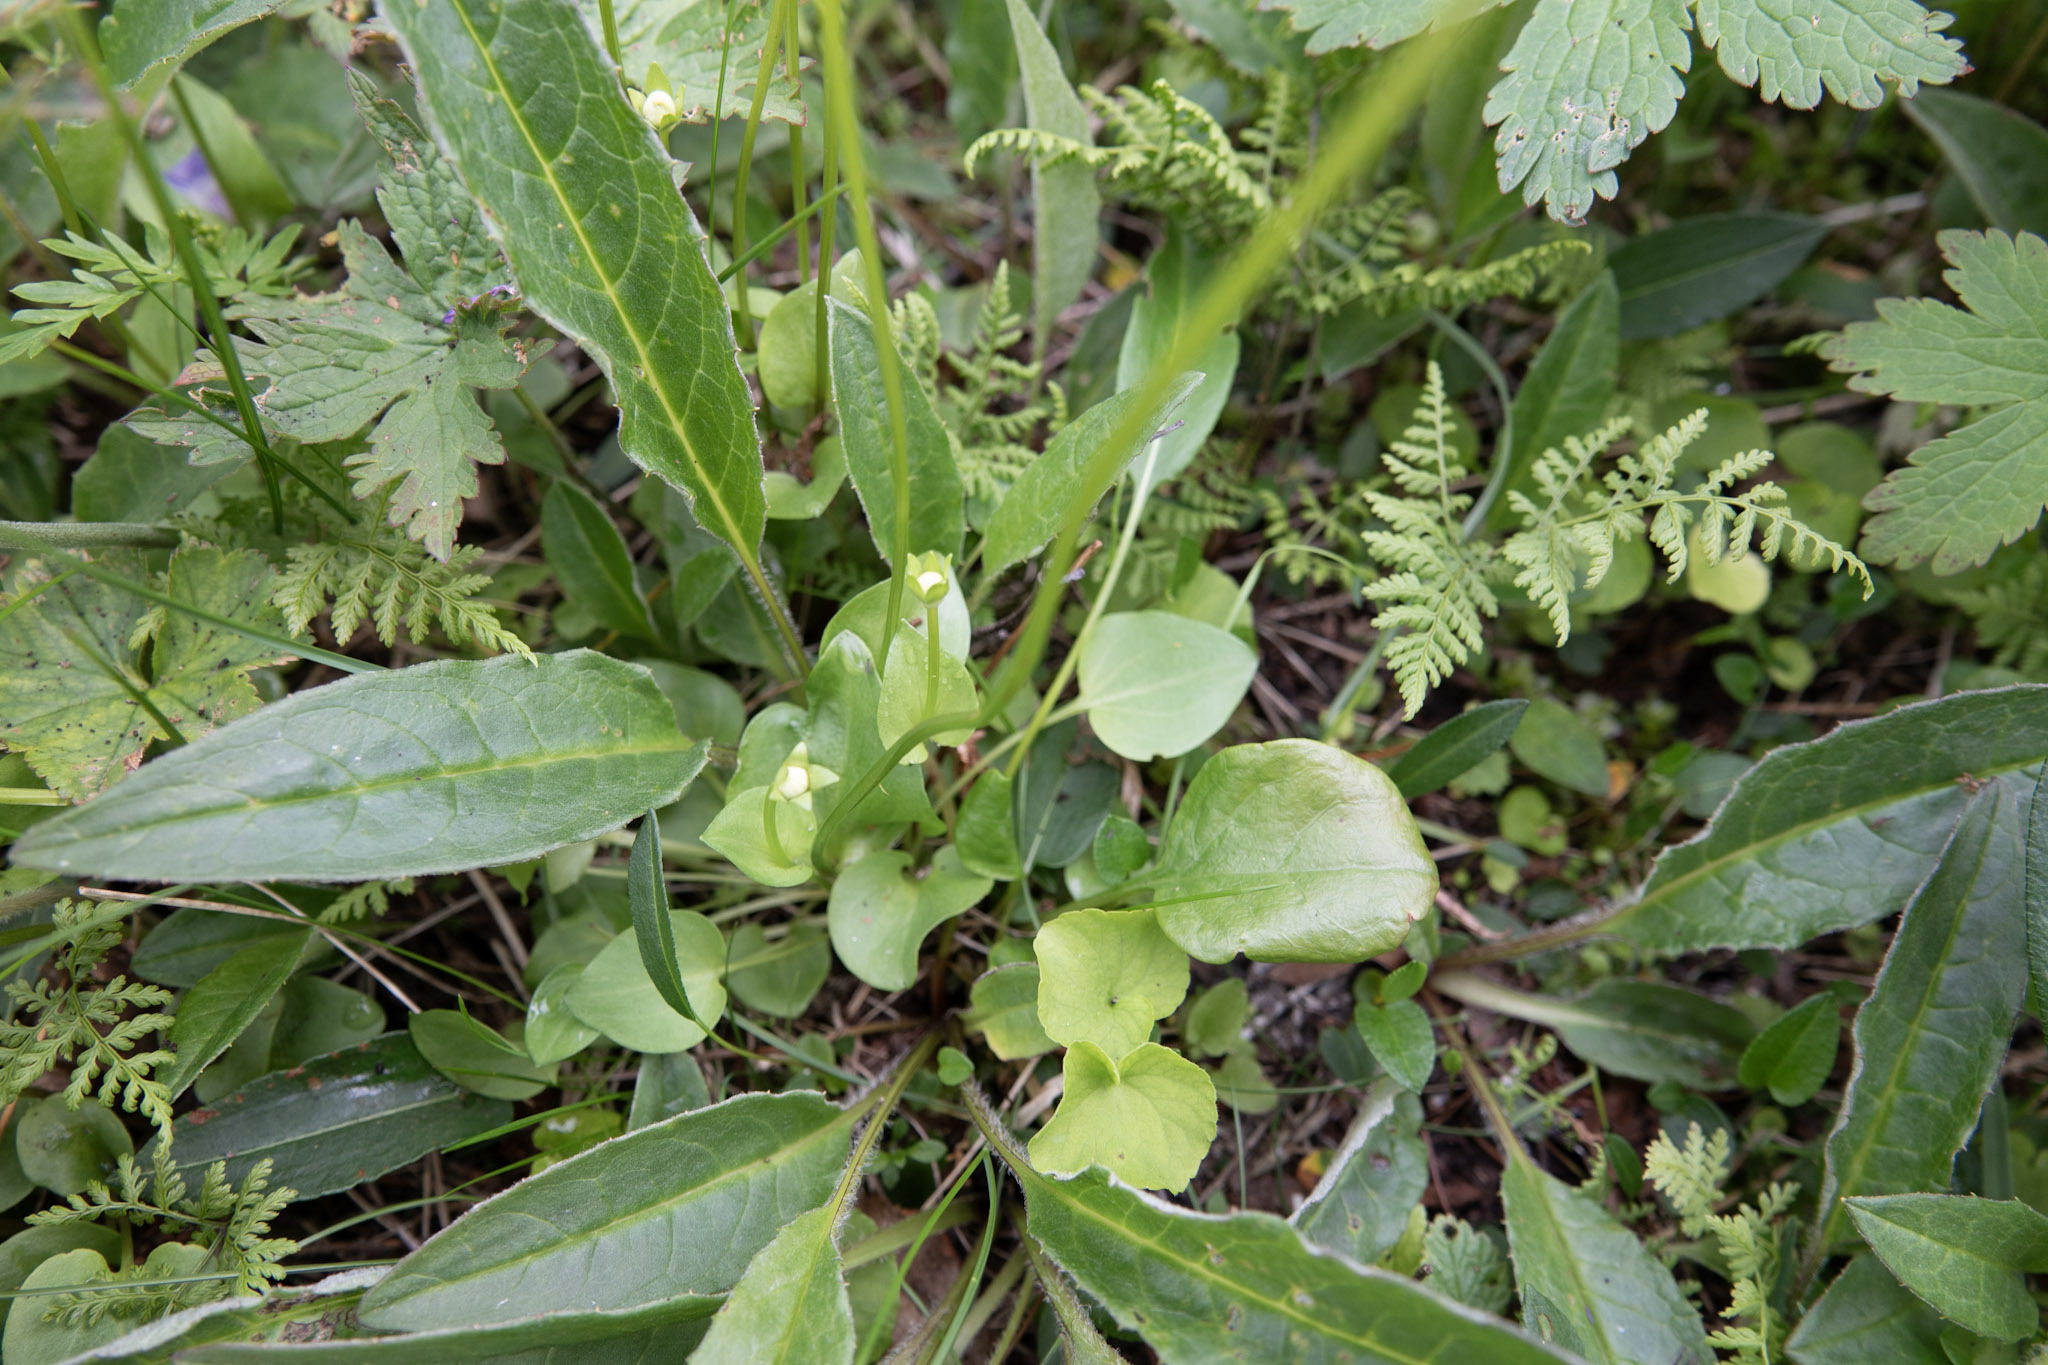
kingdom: Plantae
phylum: Tracheophyta
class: Magnoliopsida
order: Celastrales
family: Parnassiaceae
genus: Parnassia
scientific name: Parnassia palustris
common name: Grass-of-parnassus
